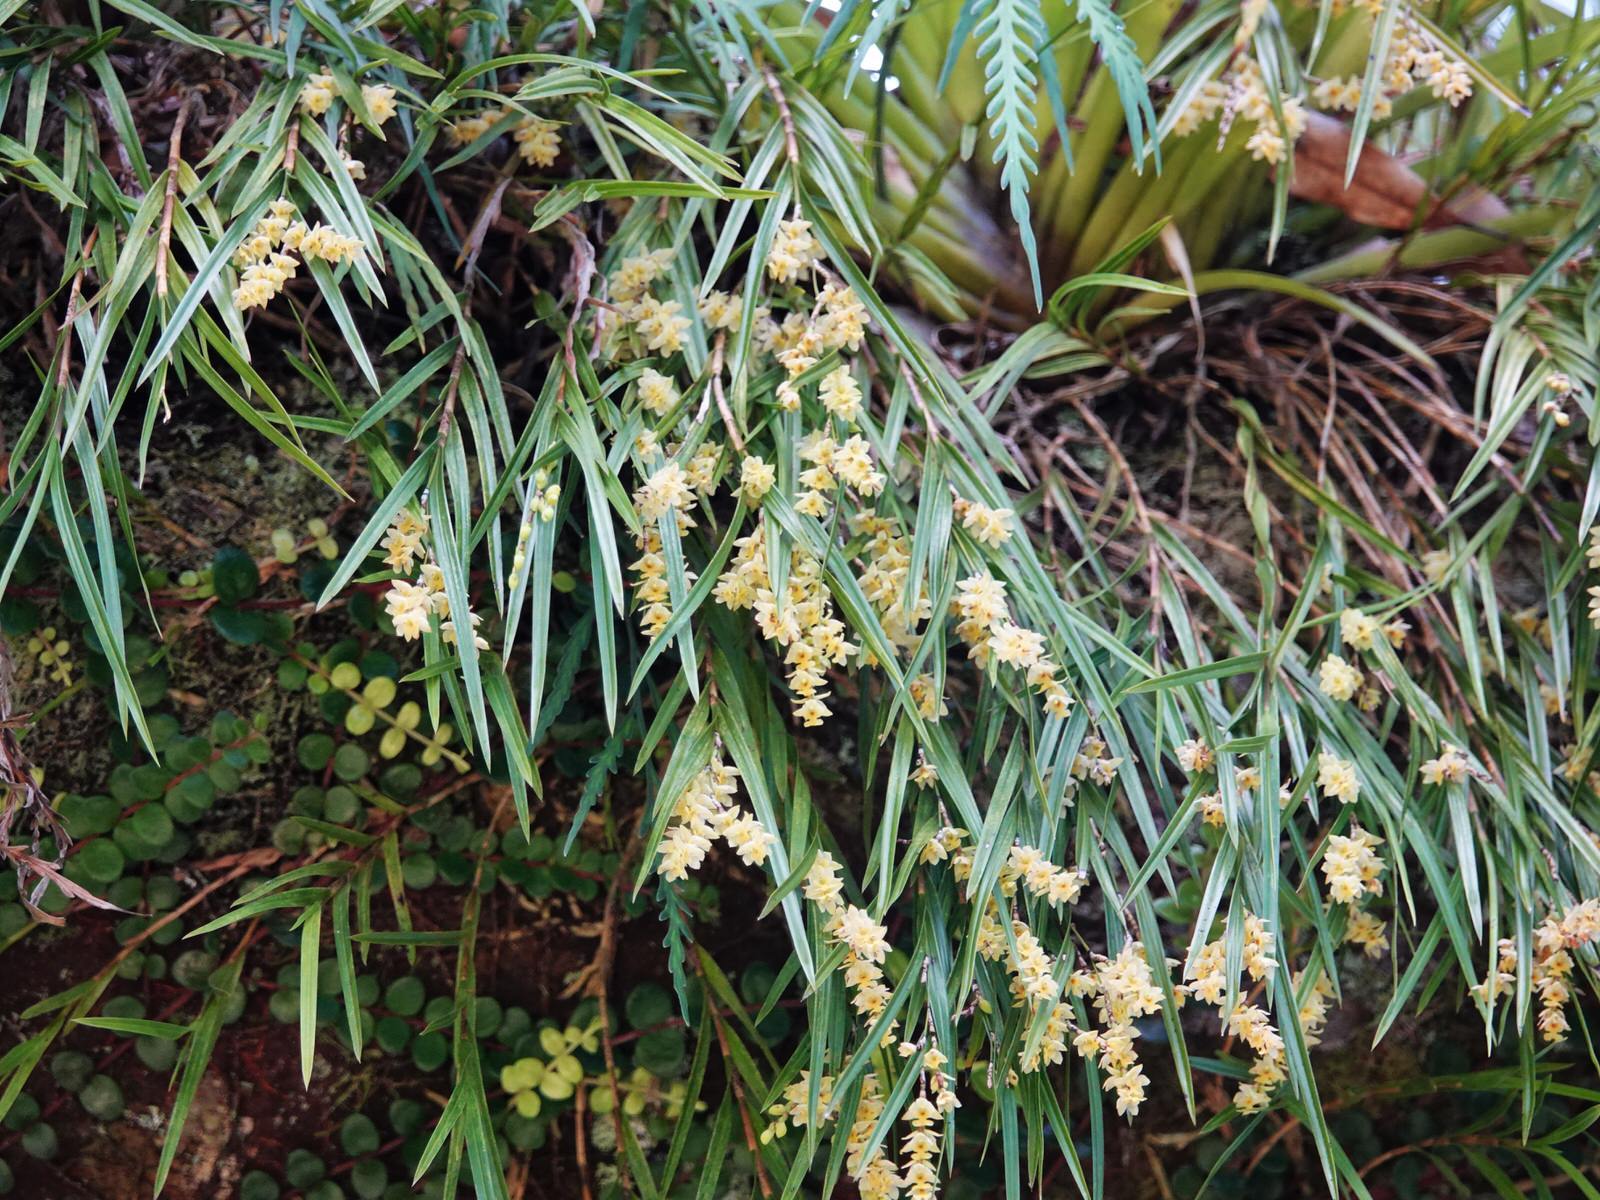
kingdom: Plantae
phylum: Tracheophyta
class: Liliopsida
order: Asparagales
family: Orchidaceae
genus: Earina
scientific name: Earina mucronata
